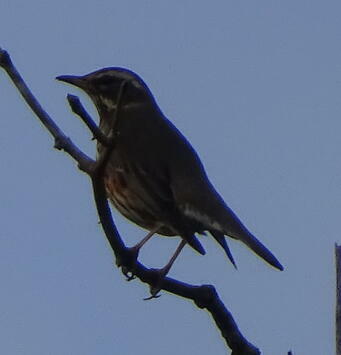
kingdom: Animalia
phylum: Chordata
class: Aves
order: Passeriformes
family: Turdidae
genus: Turdus
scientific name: Turdus iliacus
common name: Redwing
